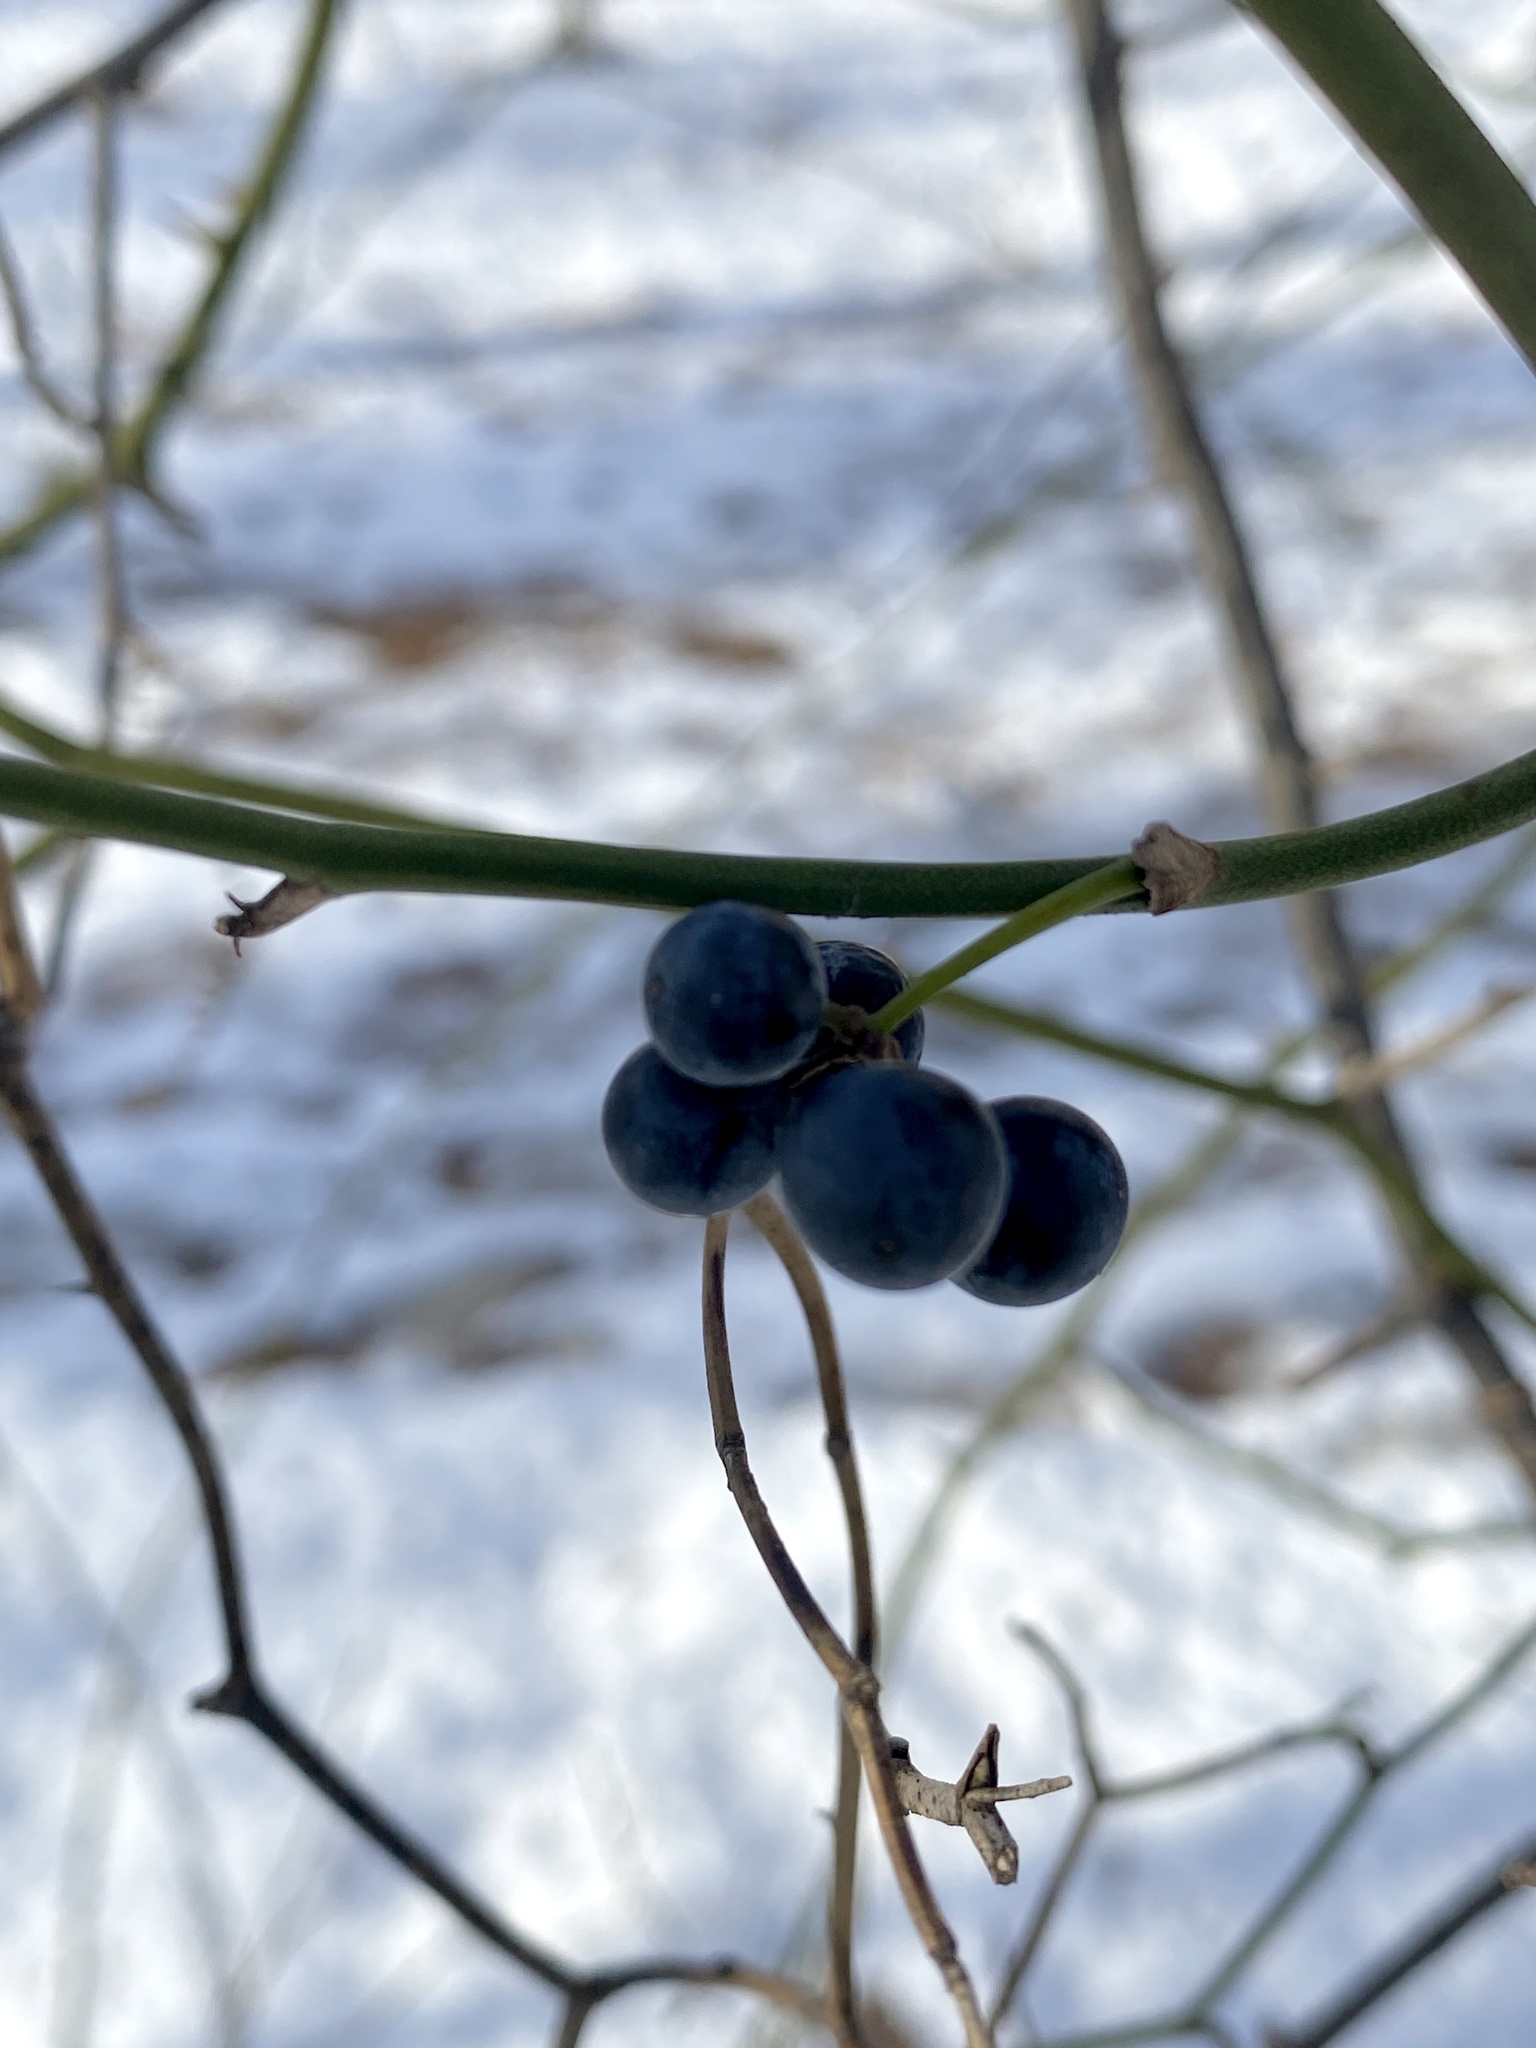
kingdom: Plantae
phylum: Tracheophyta
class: Liliopsida
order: Liliales
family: Smilacaceae
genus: Smilax
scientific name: Smilax rotundifolia
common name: Bullbriar
